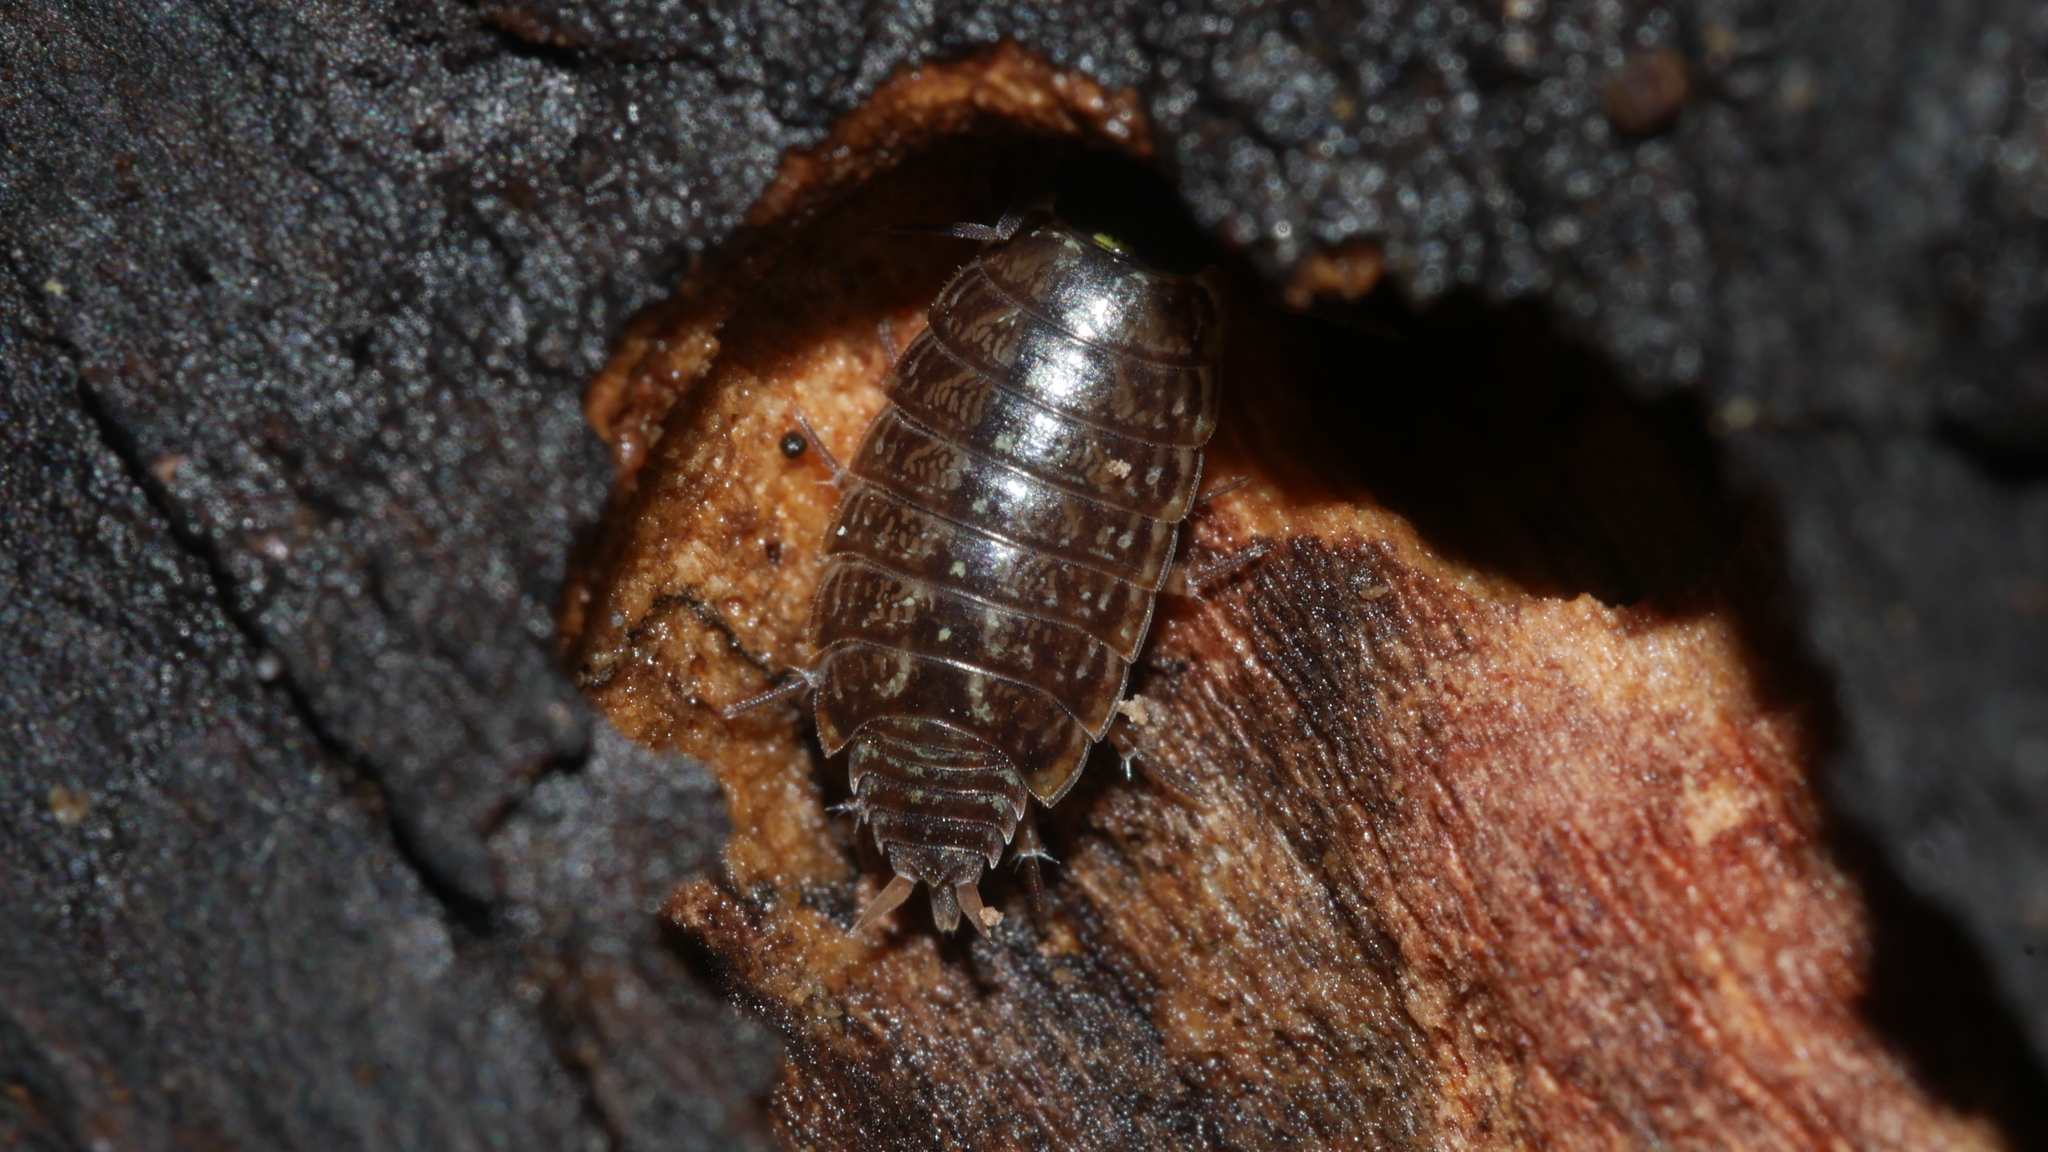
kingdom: Animalia
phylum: Arthropoda
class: Malacostraca
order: Isopoda
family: Philosciidae
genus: Philoscia
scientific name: Philoscia muscorum
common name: Common striped woodlouse
